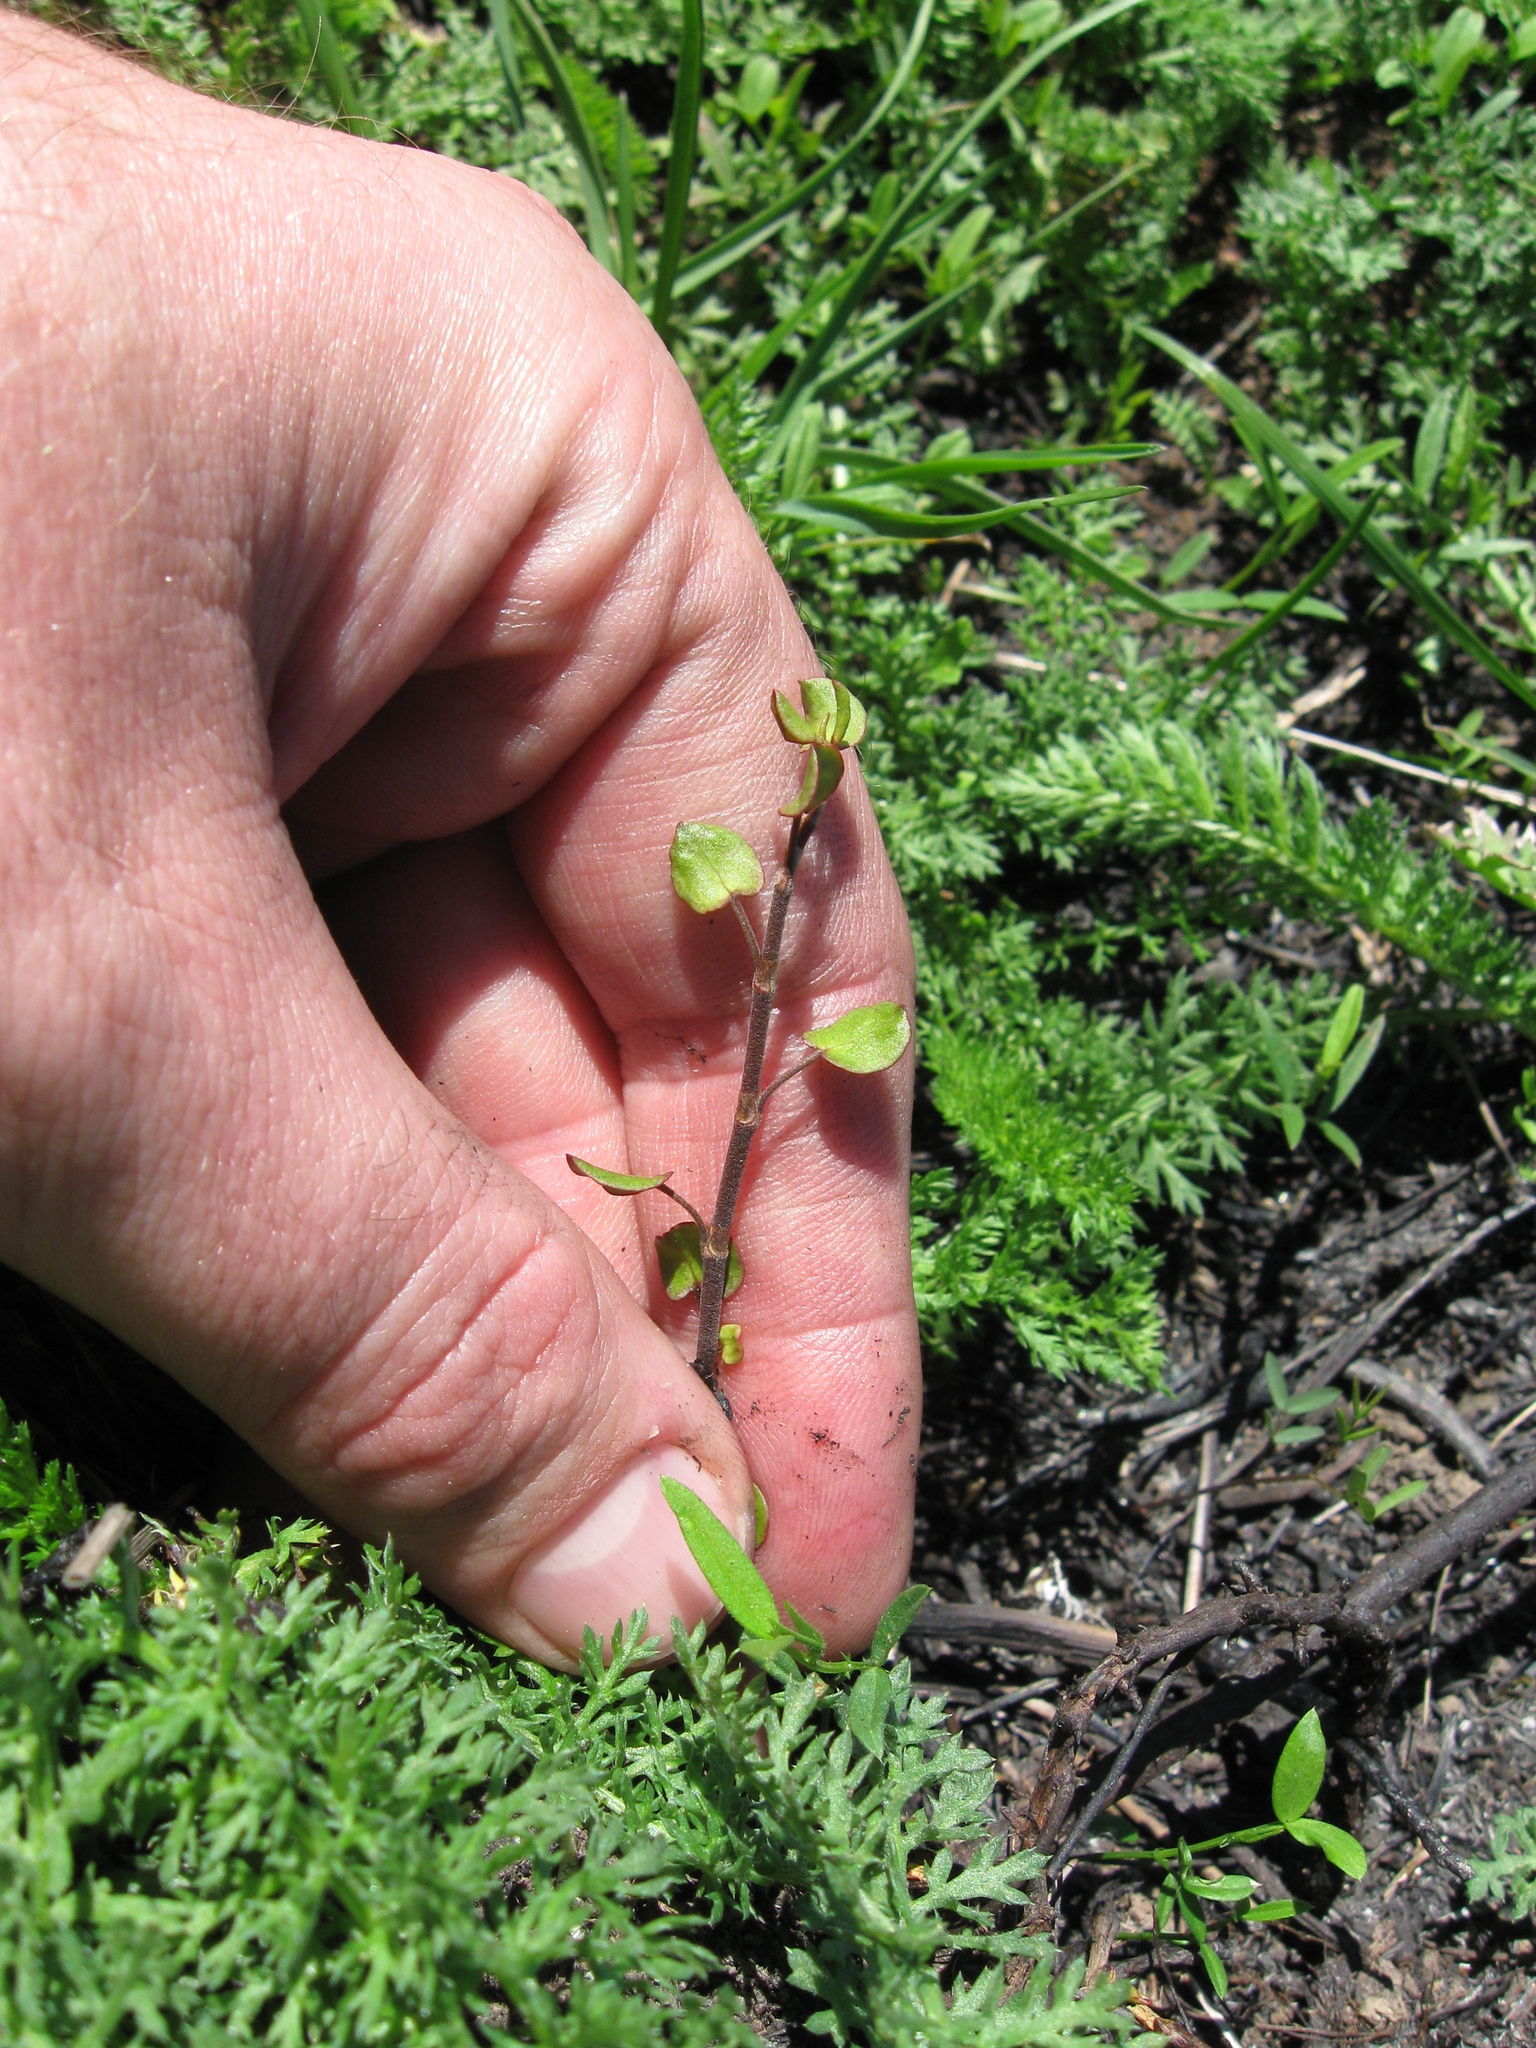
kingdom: Plantae
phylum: Tracheophyta
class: Magnoliopsida
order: Caryophyllales
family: Polygonaceae
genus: Muehlenbeckia
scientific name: Muehlenbeckia complexa
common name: Wireplant
